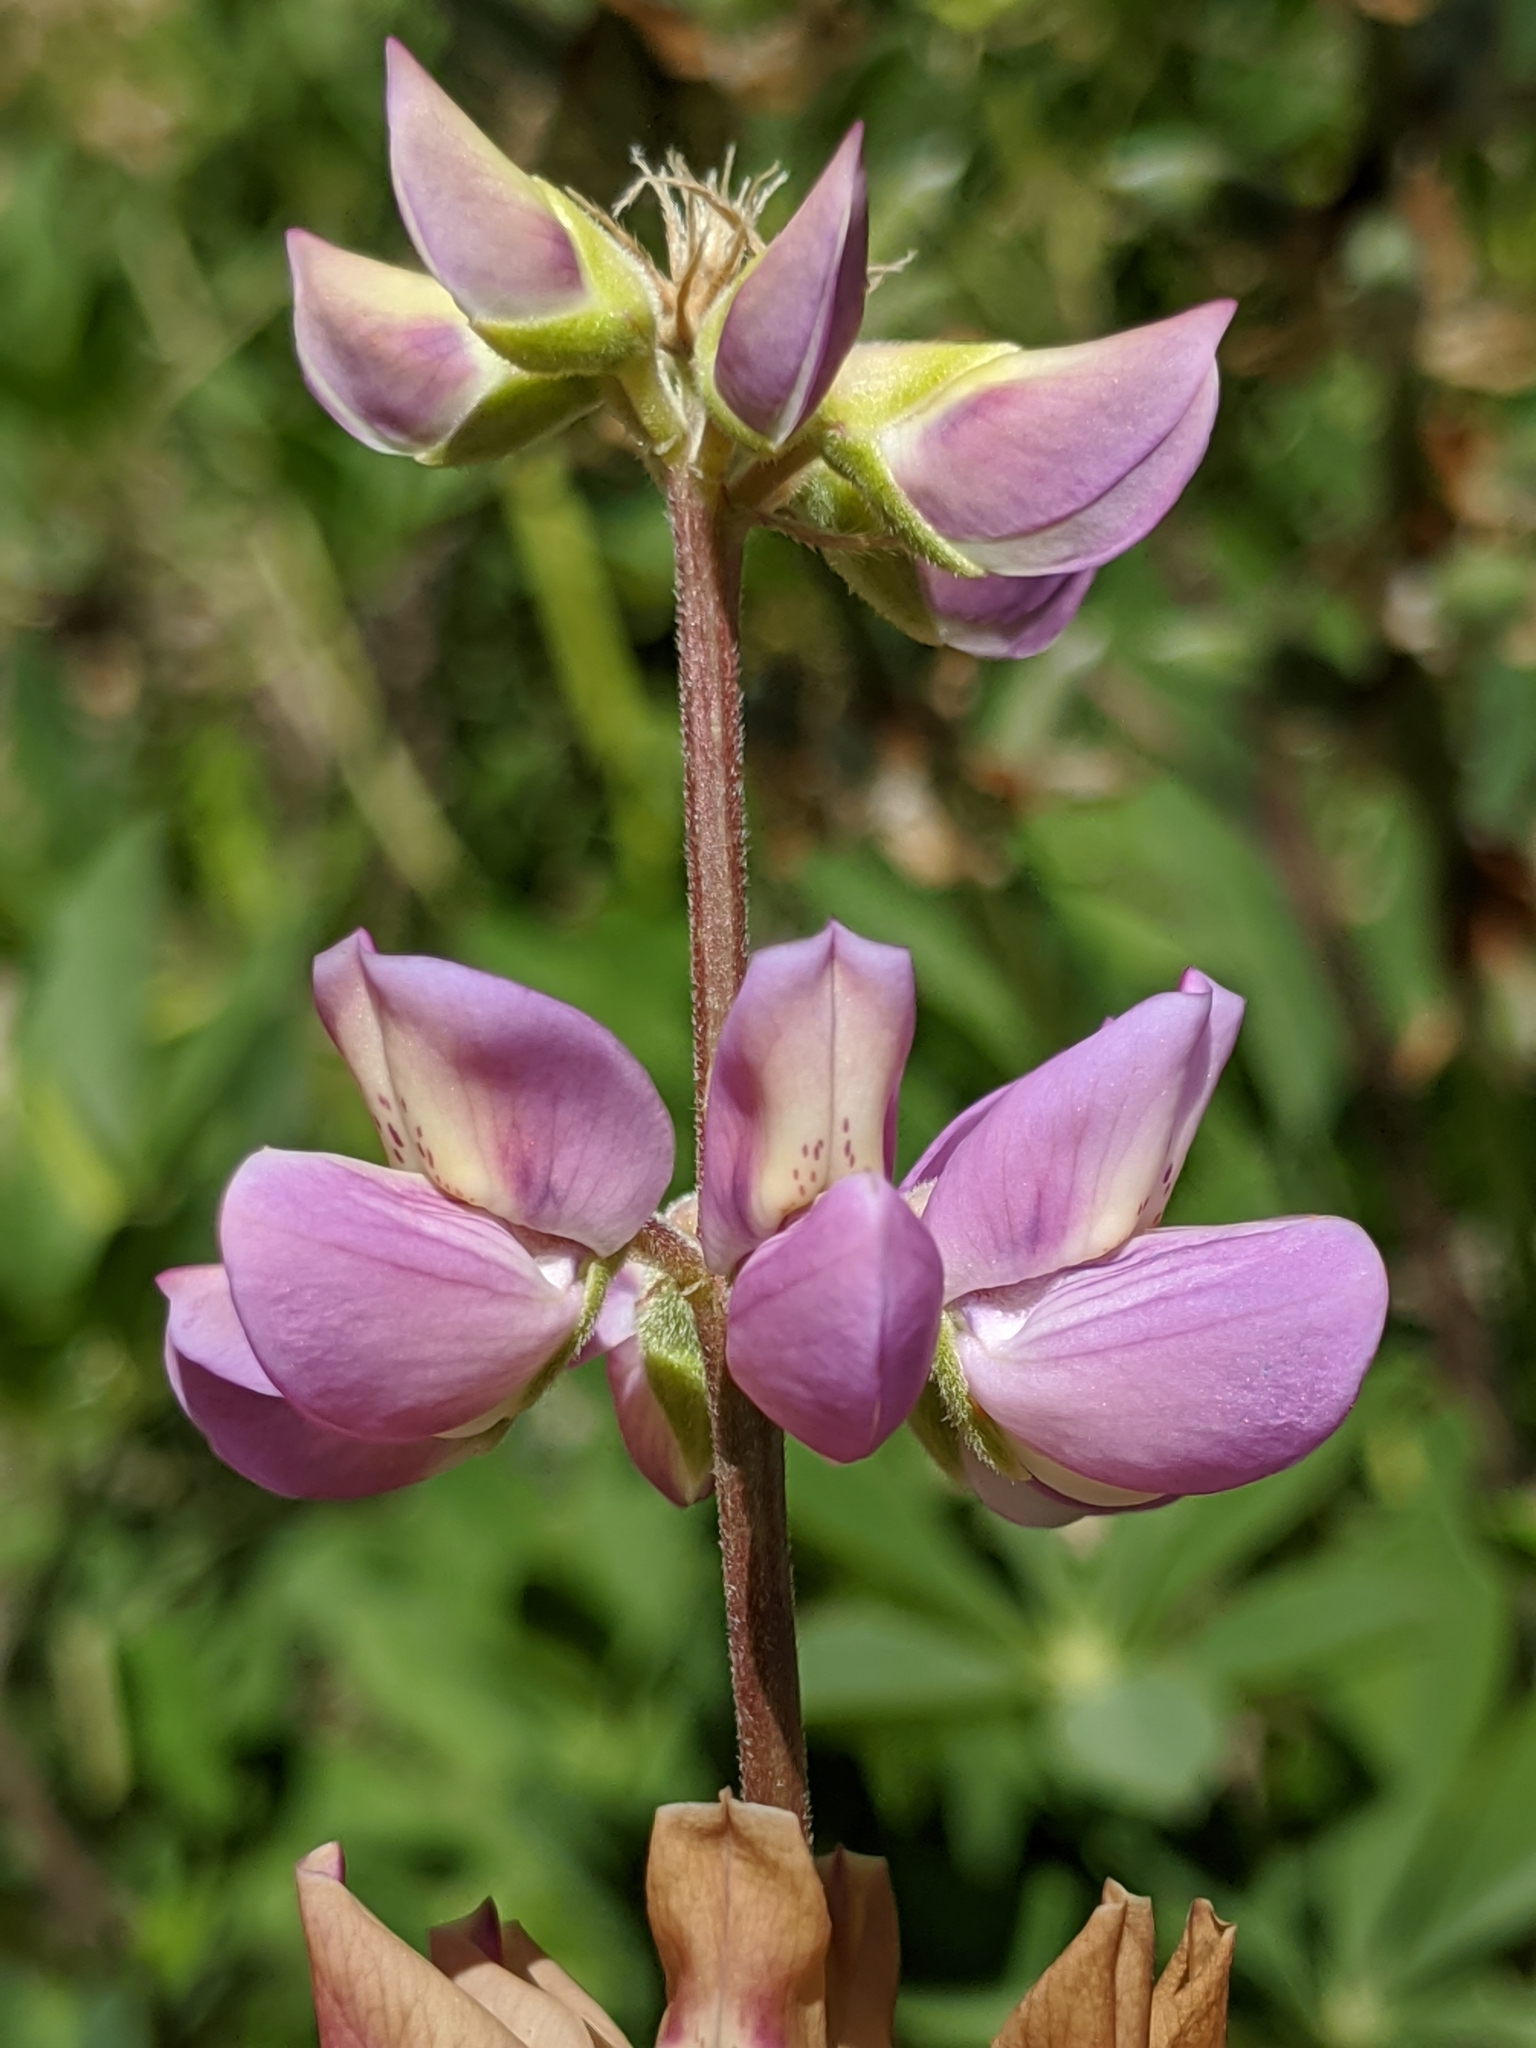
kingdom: Plantae
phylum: Tracheophyta
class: Magnoliopsida
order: Fabales
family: Fabaceae
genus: Lupinus
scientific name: Lupinus latifolius
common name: Broad-leaved lupine
